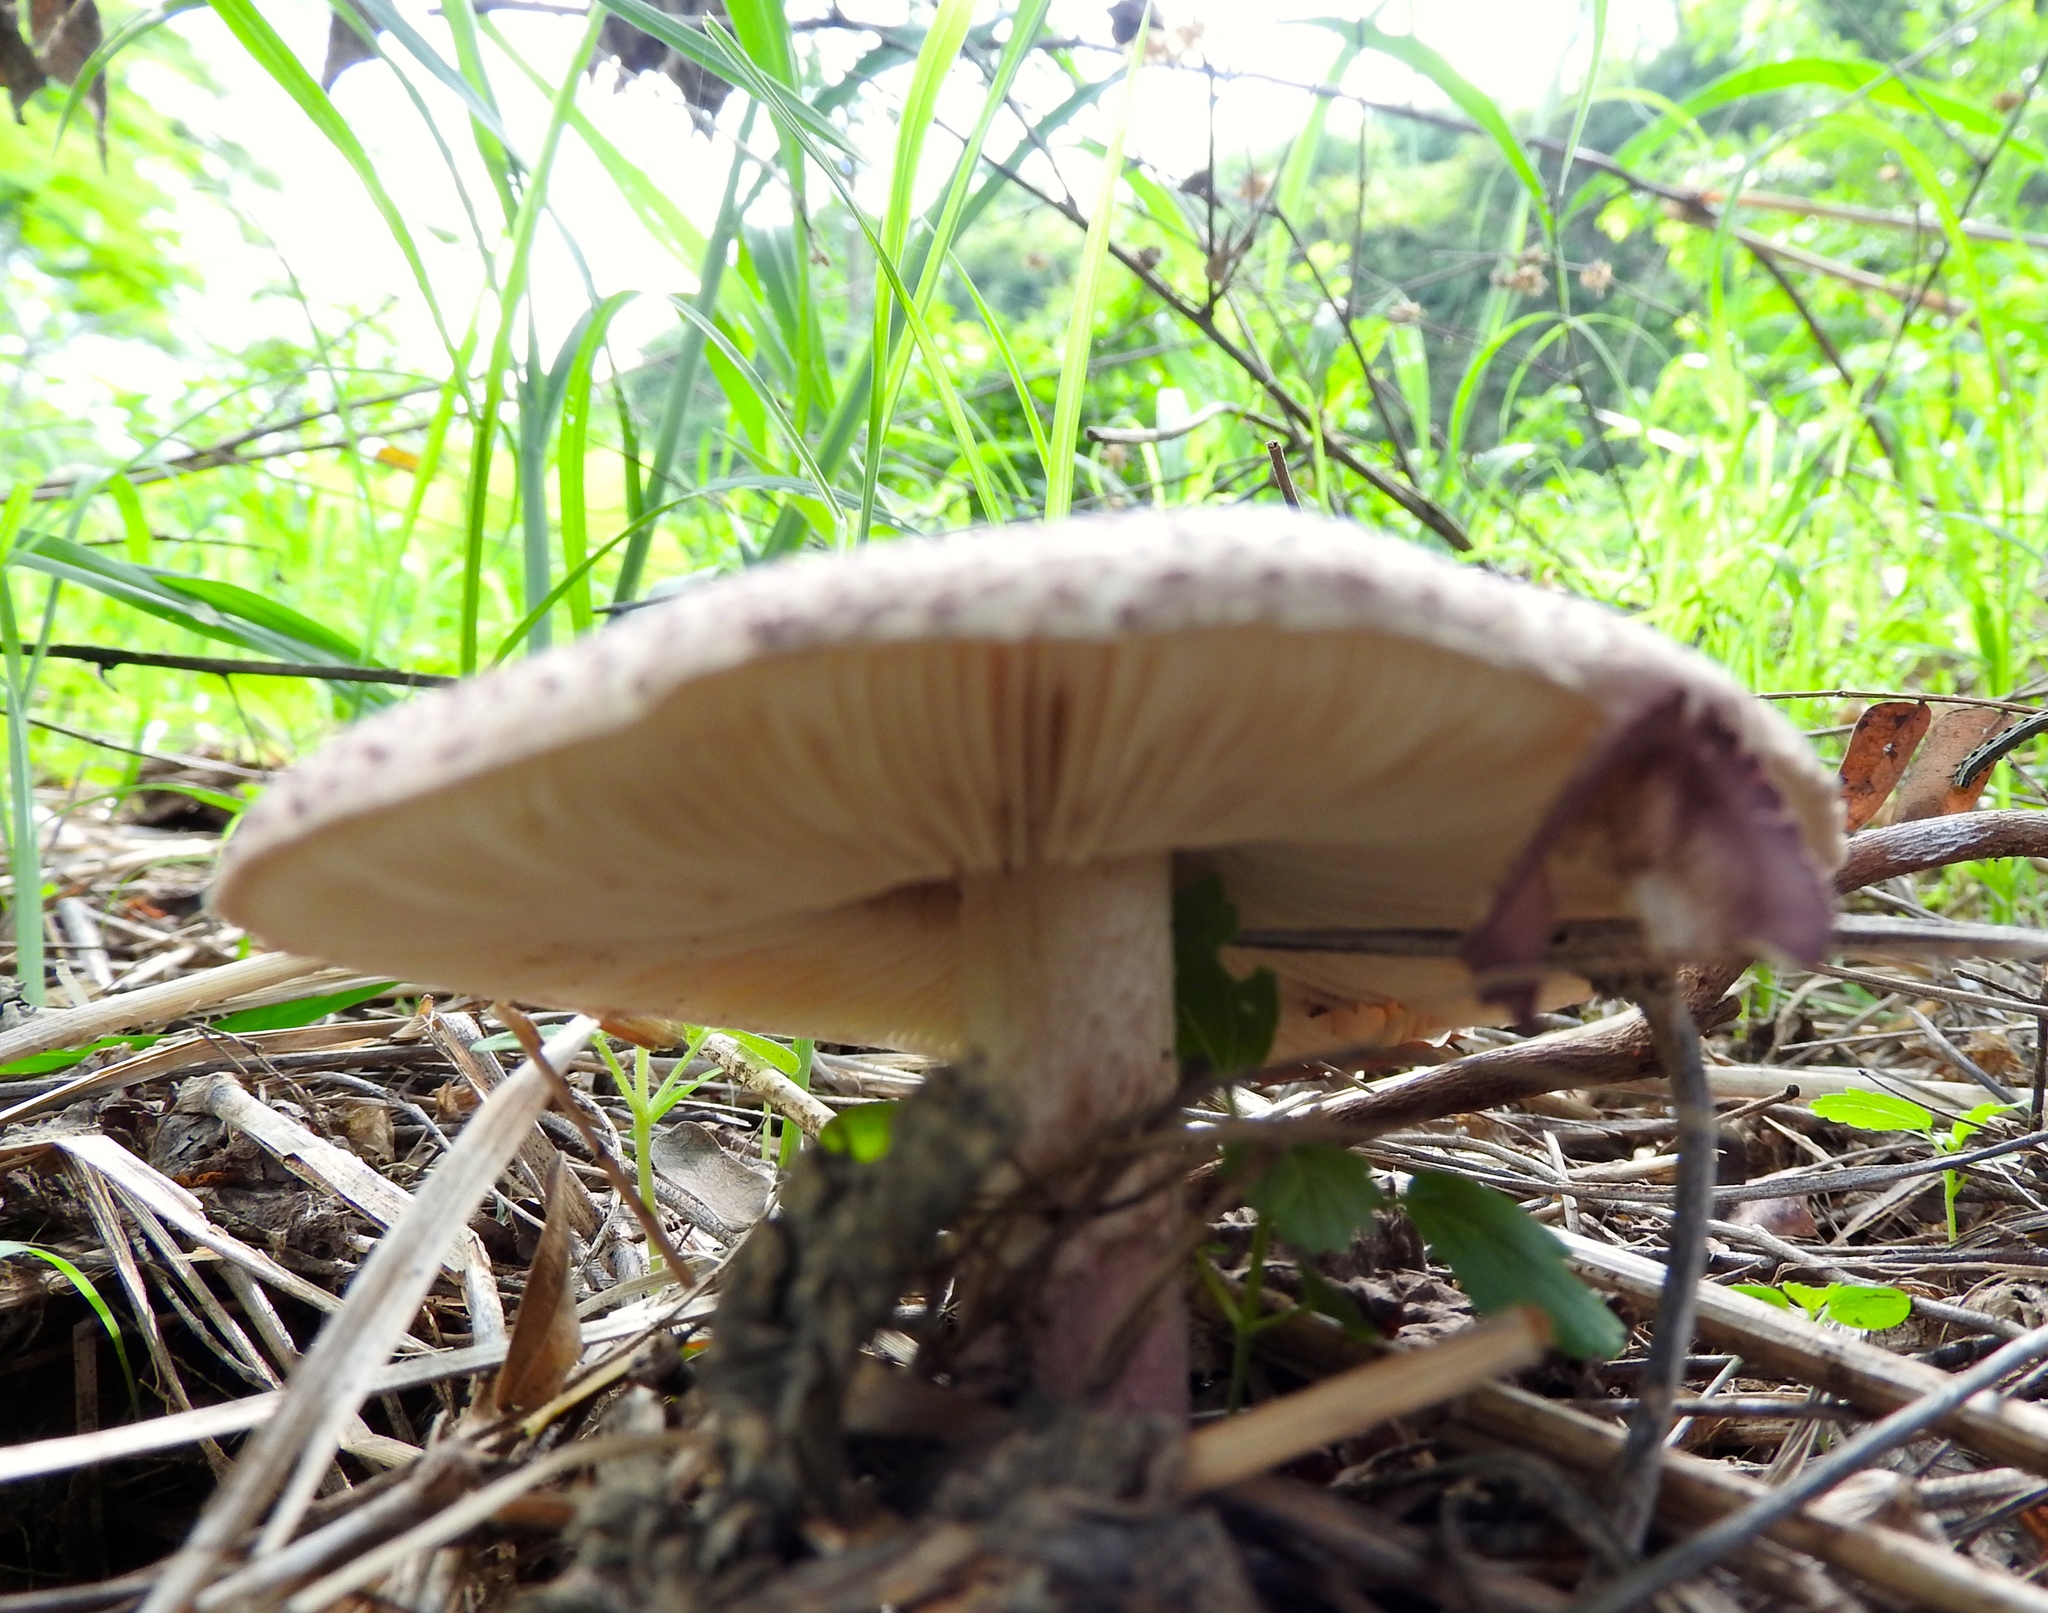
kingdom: Fungi
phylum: Basidiomycota
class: Agaricomycetes
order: Agaricales
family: Agaricaceae
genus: Leucoagaricus
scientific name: Leucoagaricus
